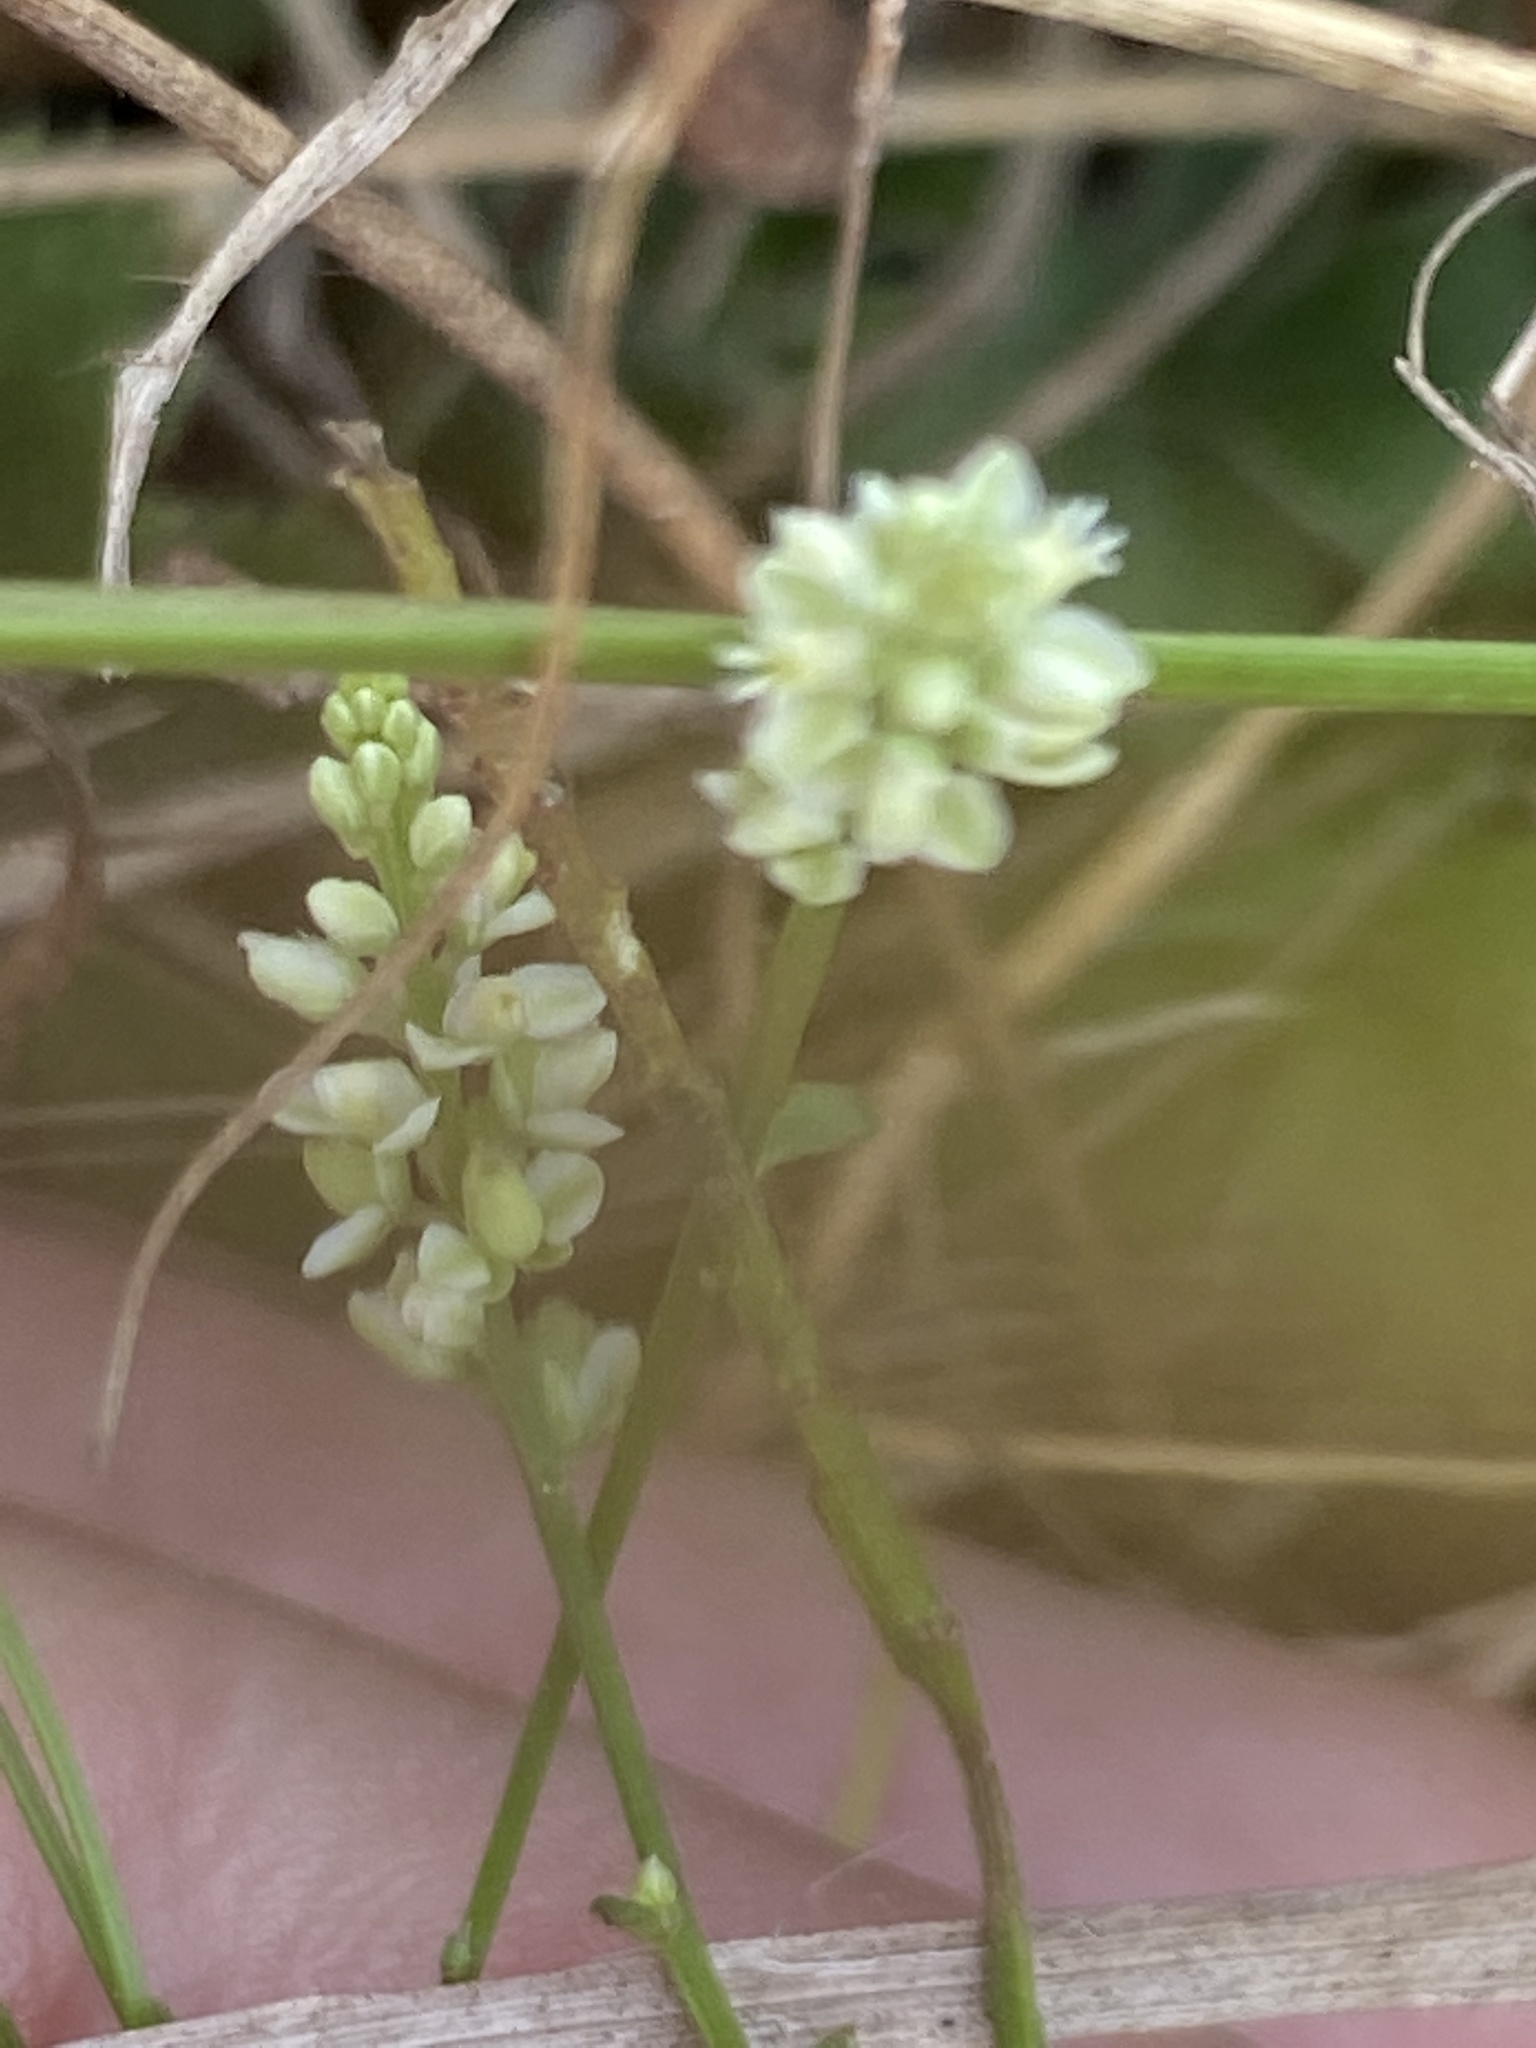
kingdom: Plantae
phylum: Tracheophyta
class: Magnoliopsida
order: Fabales
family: Polygalaceae
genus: Polygala
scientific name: Polygala verticillata
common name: Whorl milkwort
